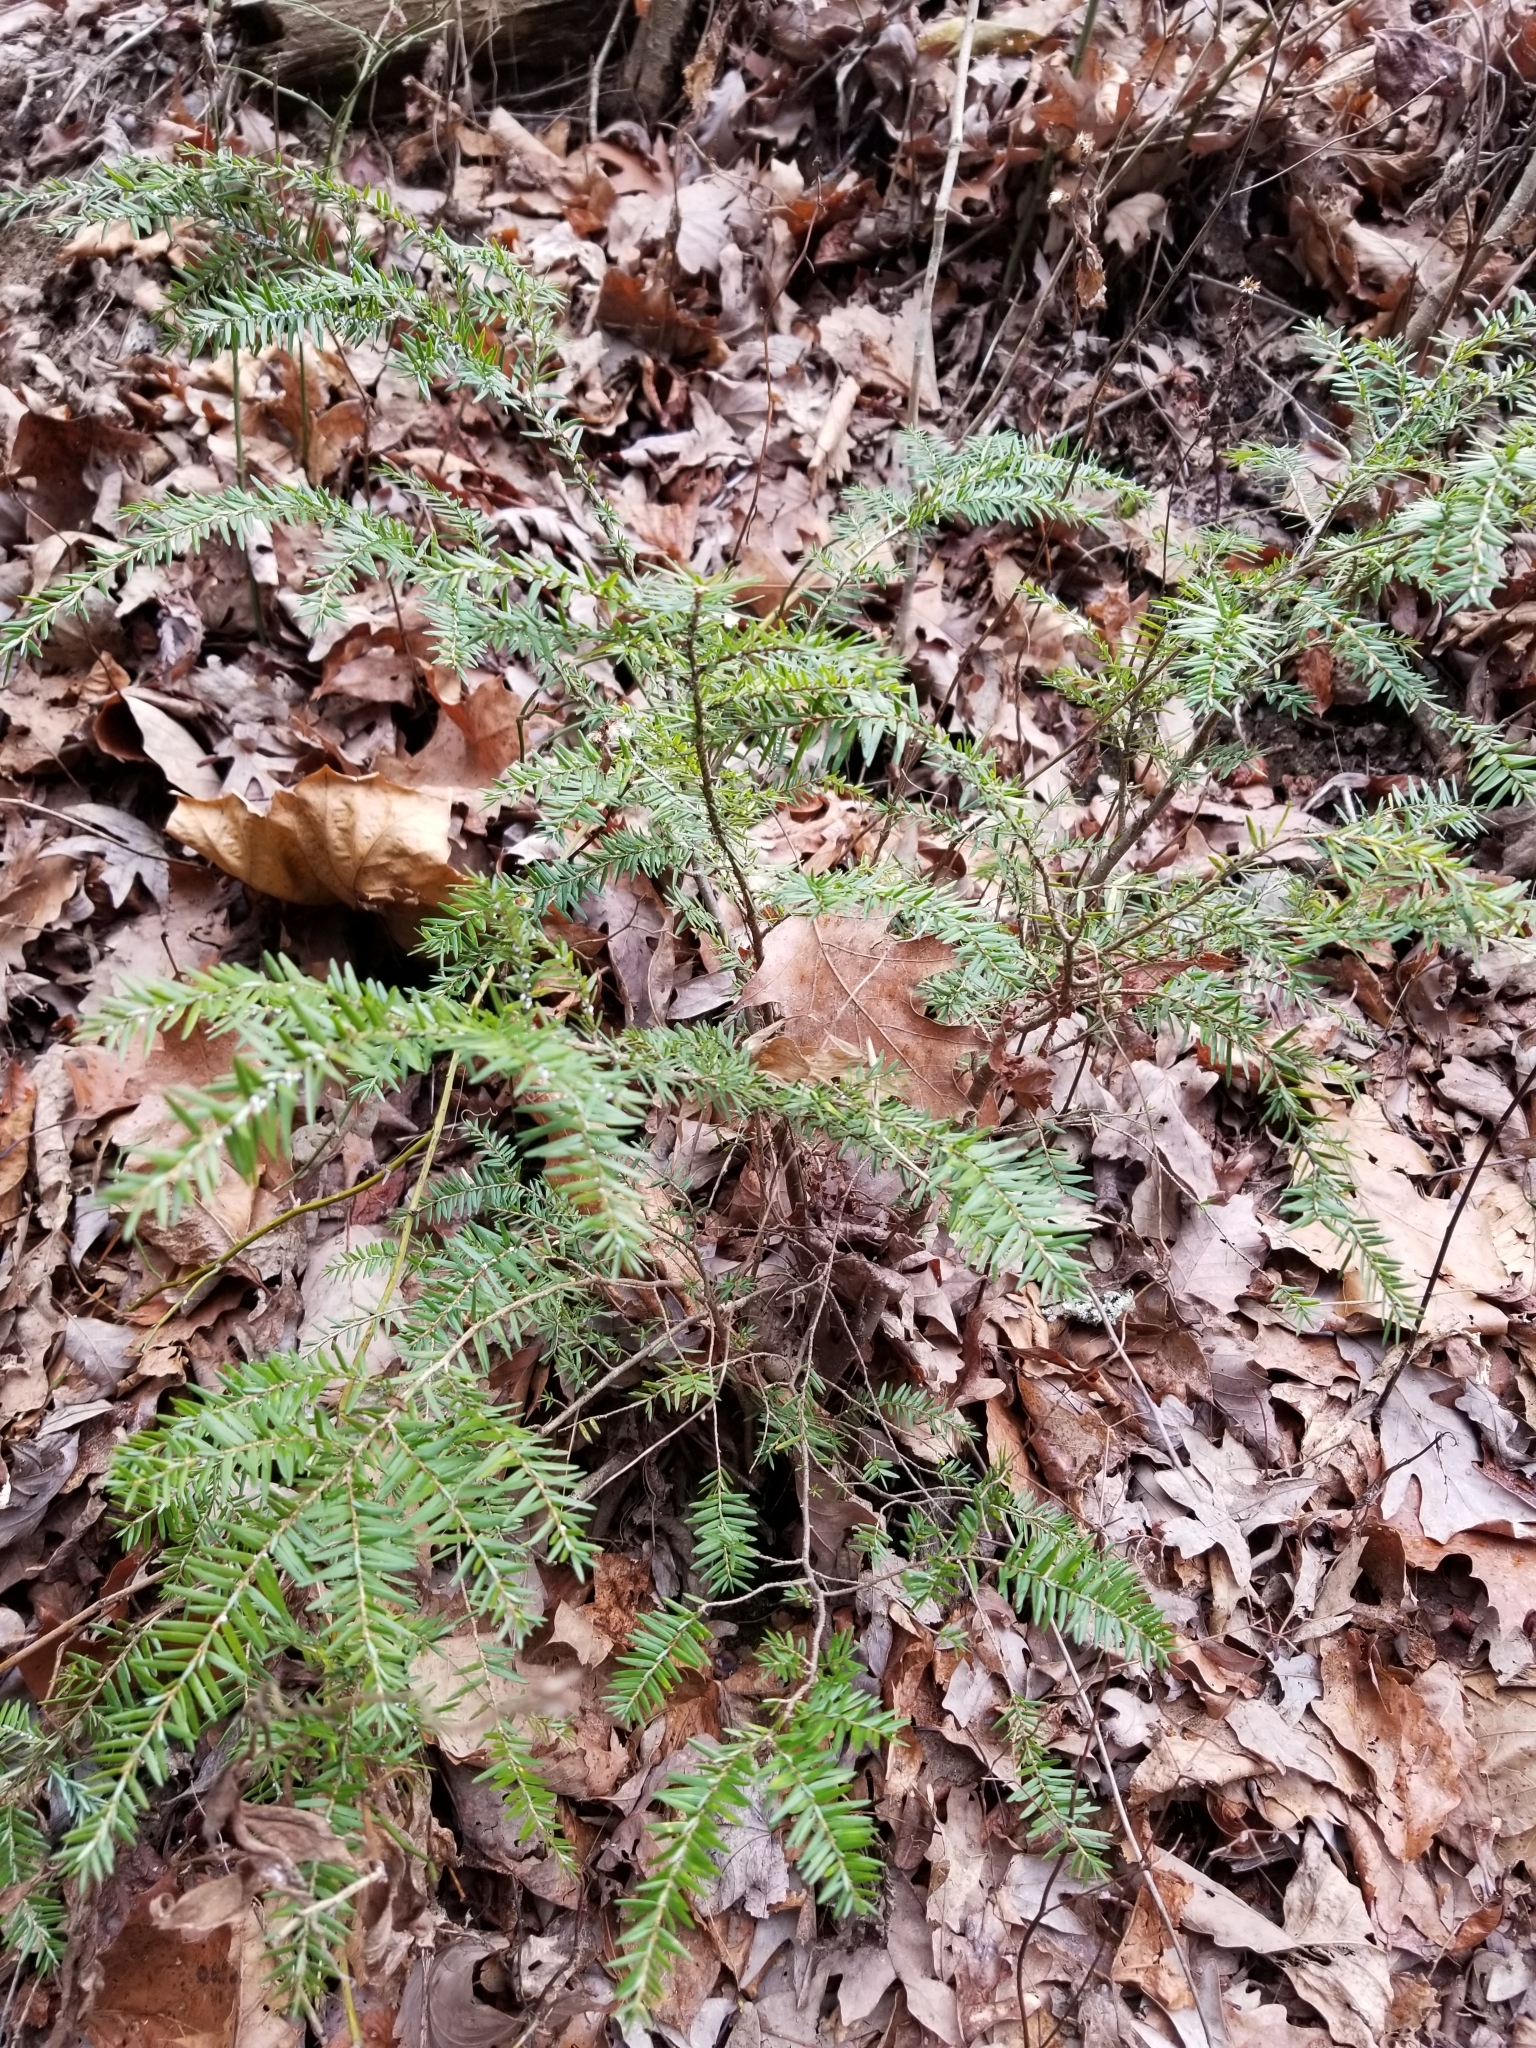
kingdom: Plantae
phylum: Tracheophyta
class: Pinopsida
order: Pinales
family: Pinaceae
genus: Tsuga
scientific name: Tsuga canadensis
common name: Eastern hemlock
